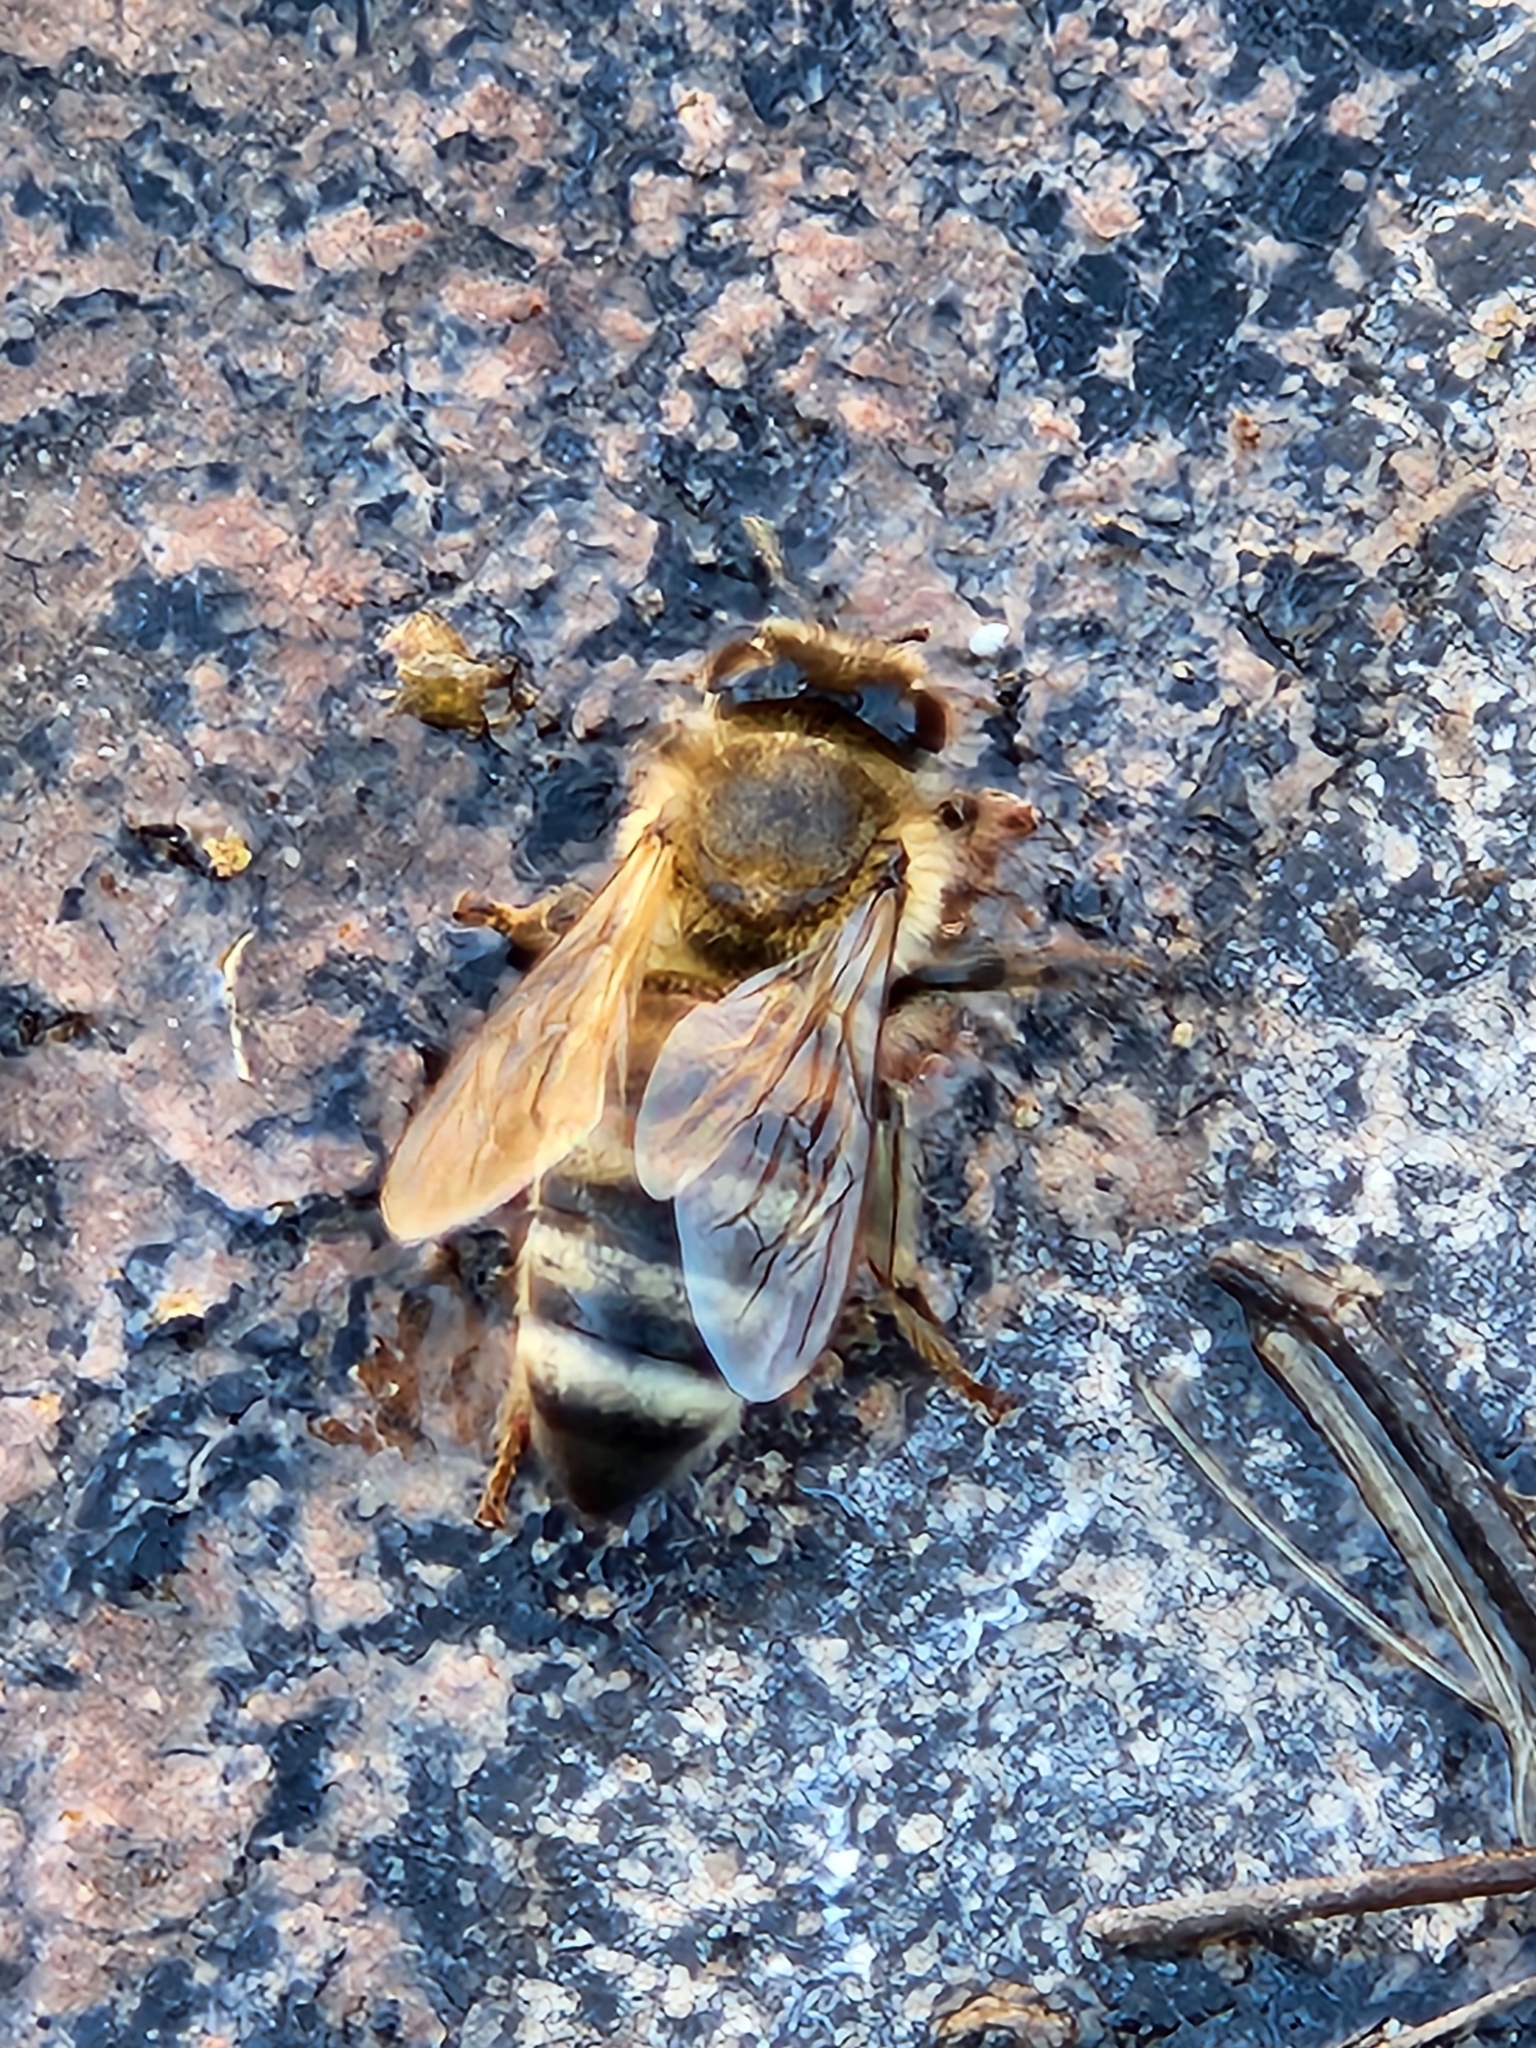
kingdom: Animalia
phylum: Arthropoda
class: Insecta
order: Hymenoptera
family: Apidae
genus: Apis
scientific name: Apis mellifera
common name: Honey bee
